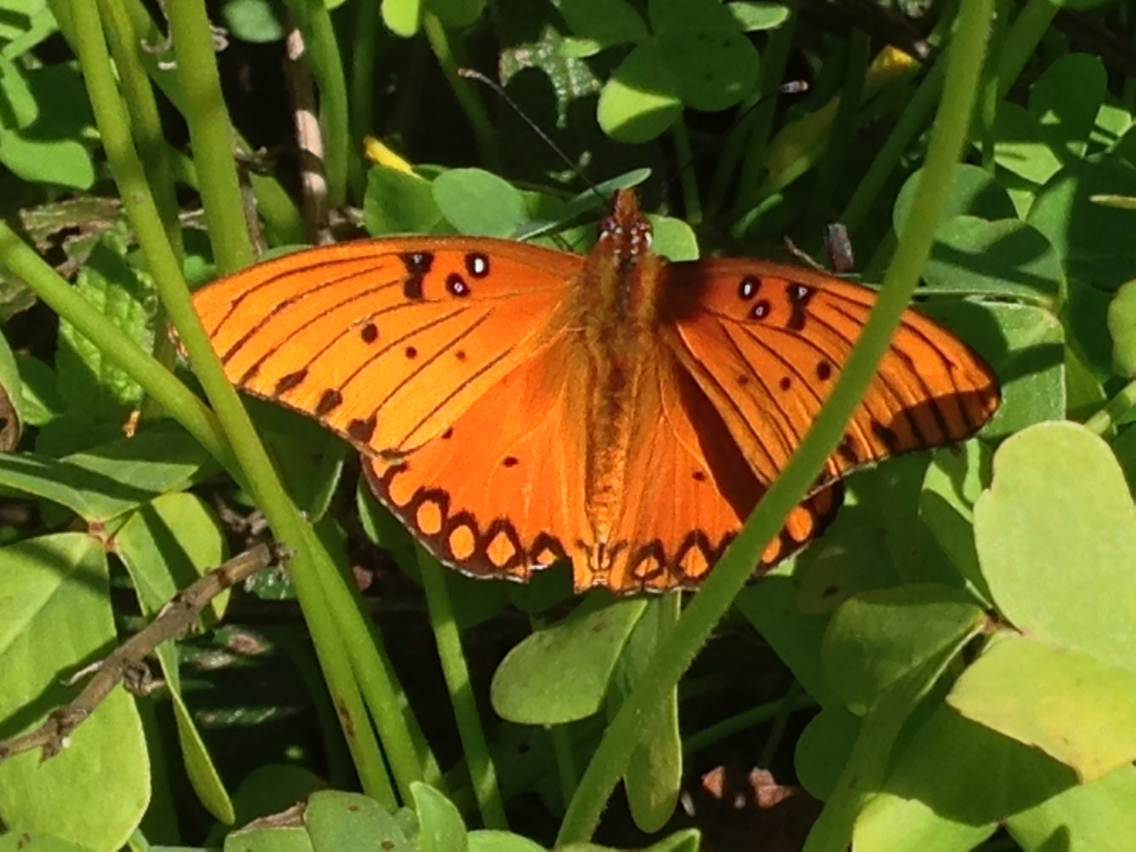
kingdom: Animalia
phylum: Arthropoda
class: Insecta
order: Lepidoptera
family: Nymphalidae
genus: Dione
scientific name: Dione vanillae
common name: Gulf fritillary
